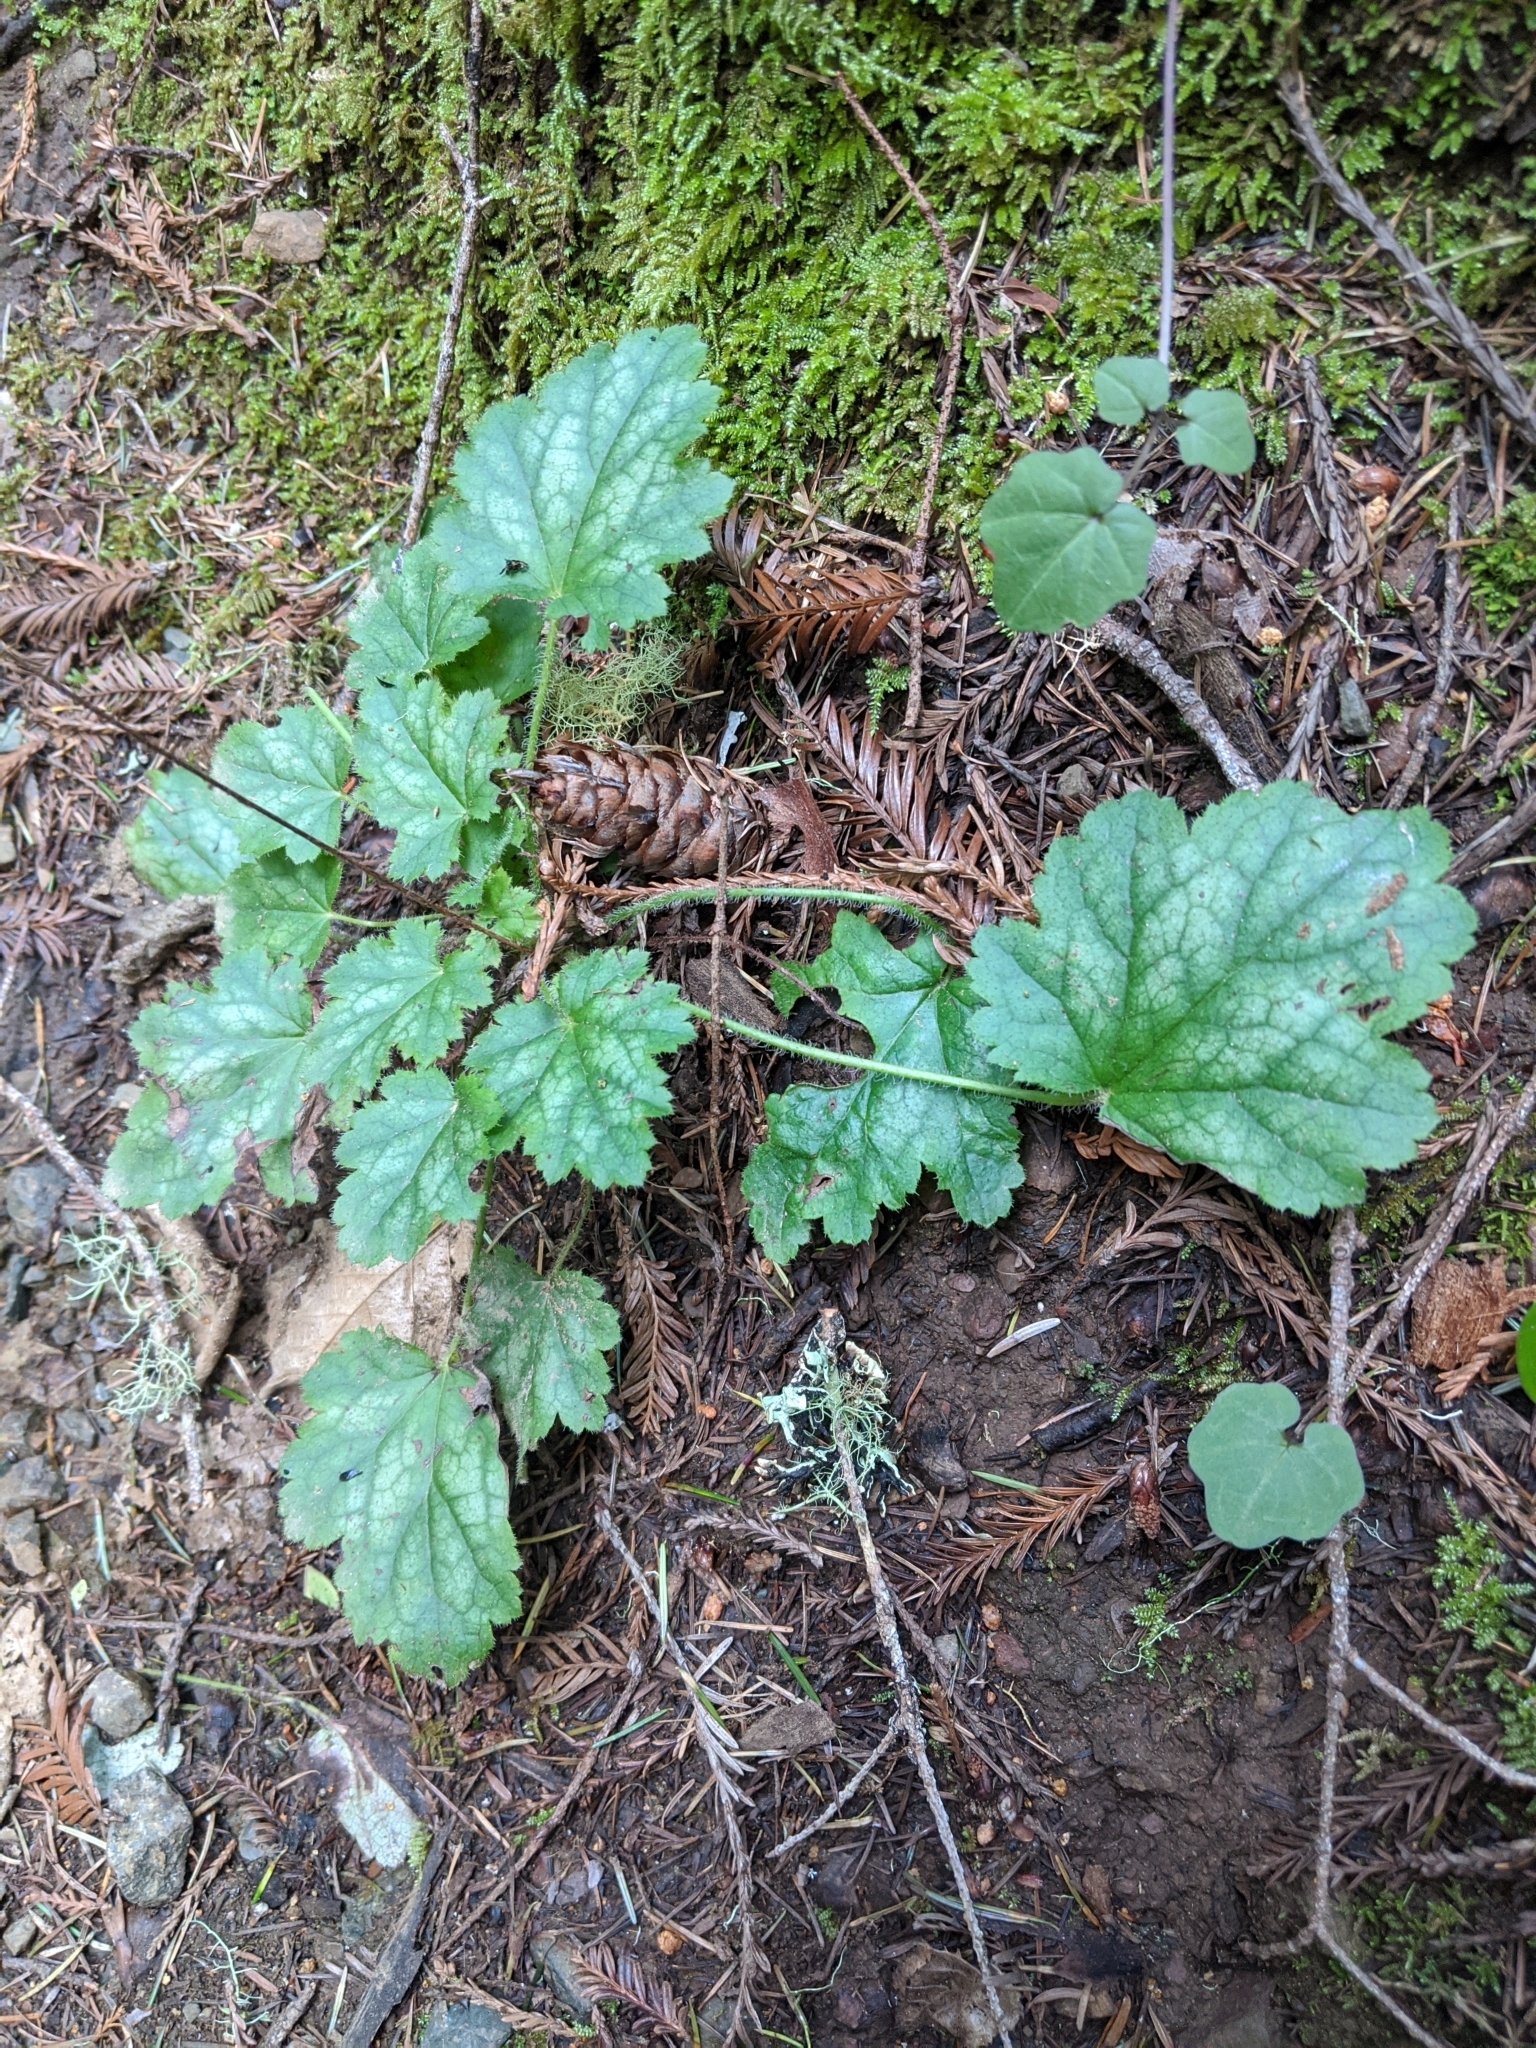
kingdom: Plantae
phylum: Tracheophyta
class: Magnoliopsida
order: Saxifragales
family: Saxifragaceae
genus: Heuchera
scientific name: Heuchera micrantha
